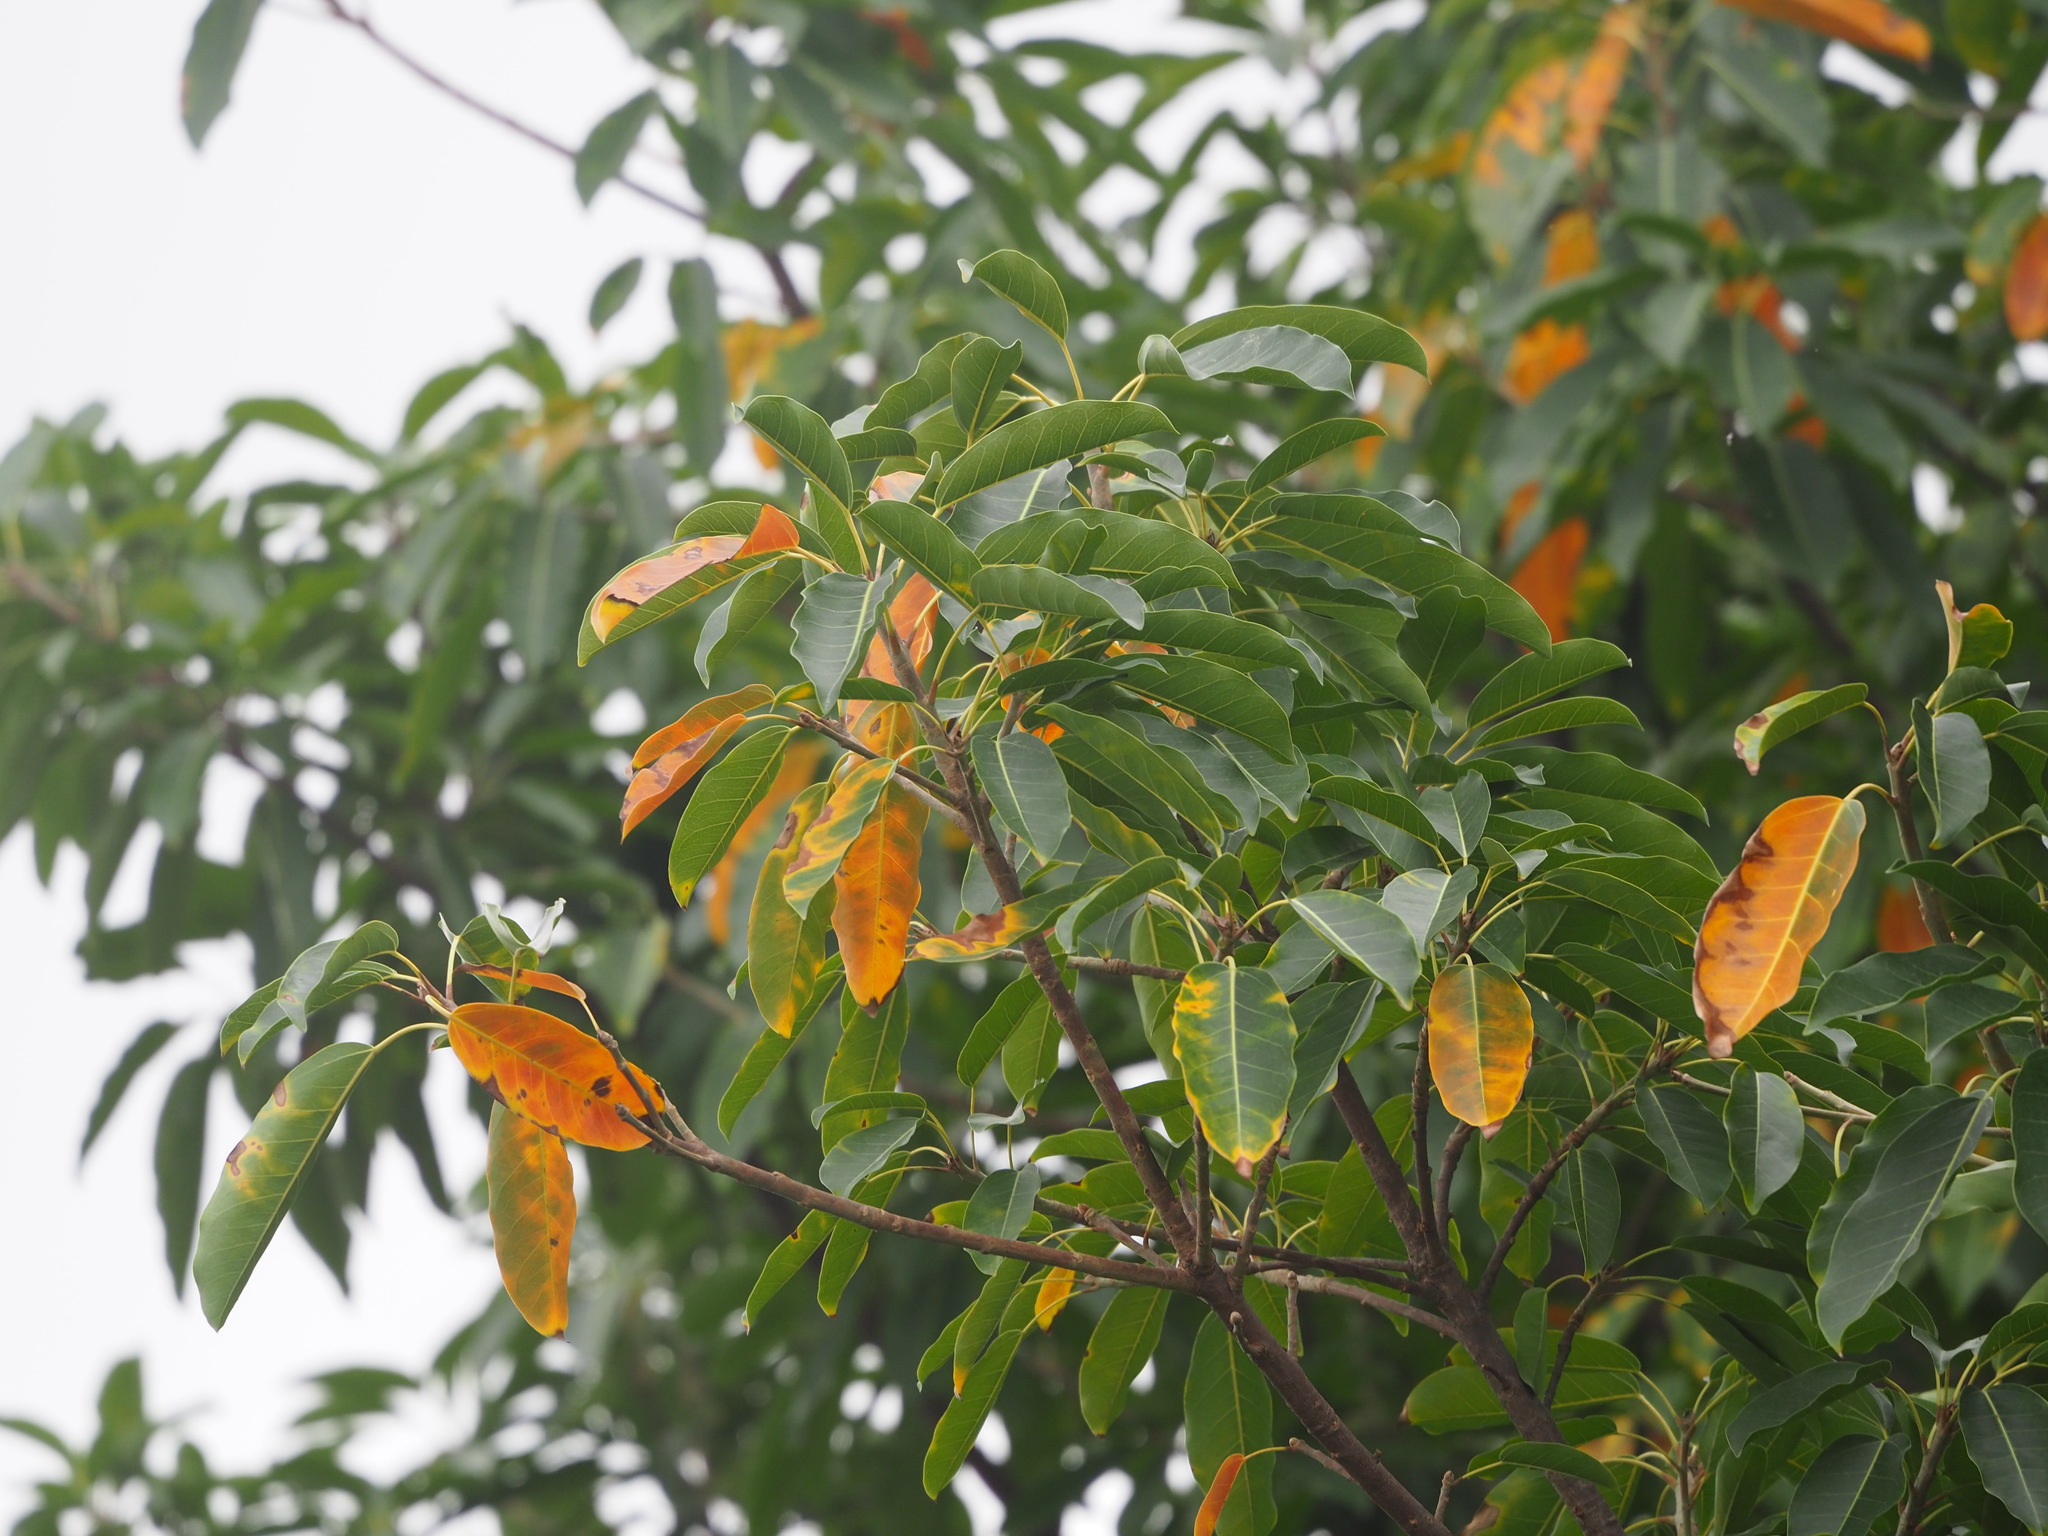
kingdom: Plantae
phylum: Tracheophyta
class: Magnoliopsida
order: Rosales
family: Moraceae
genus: Ficus
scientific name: Ficus subpisocarpa
